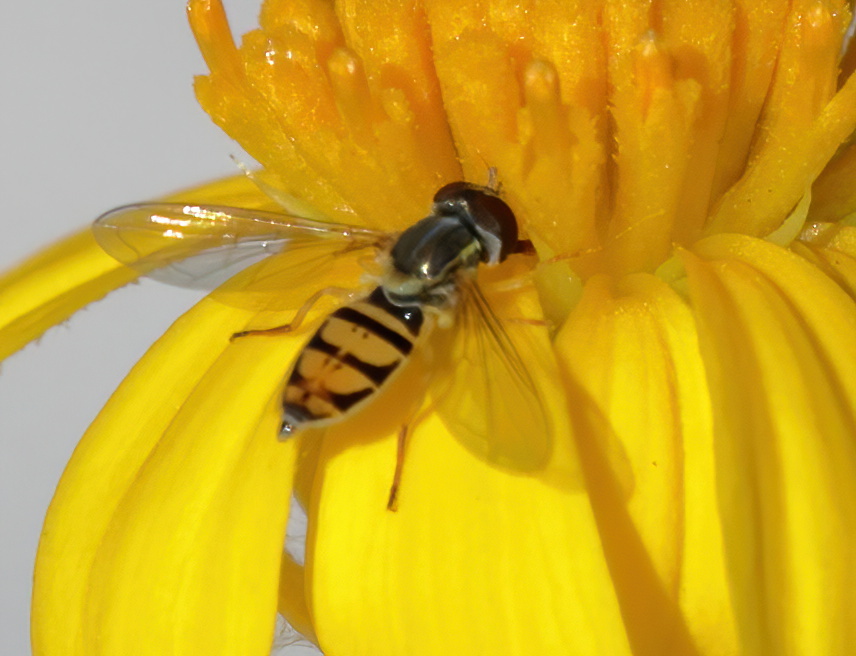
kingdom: Animalia
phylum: Arthropoda
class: Insecta
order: Diptera
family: Syrphidae
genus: Toxomerus
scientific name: Toxomerus marginatus
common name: Syrphid fly
